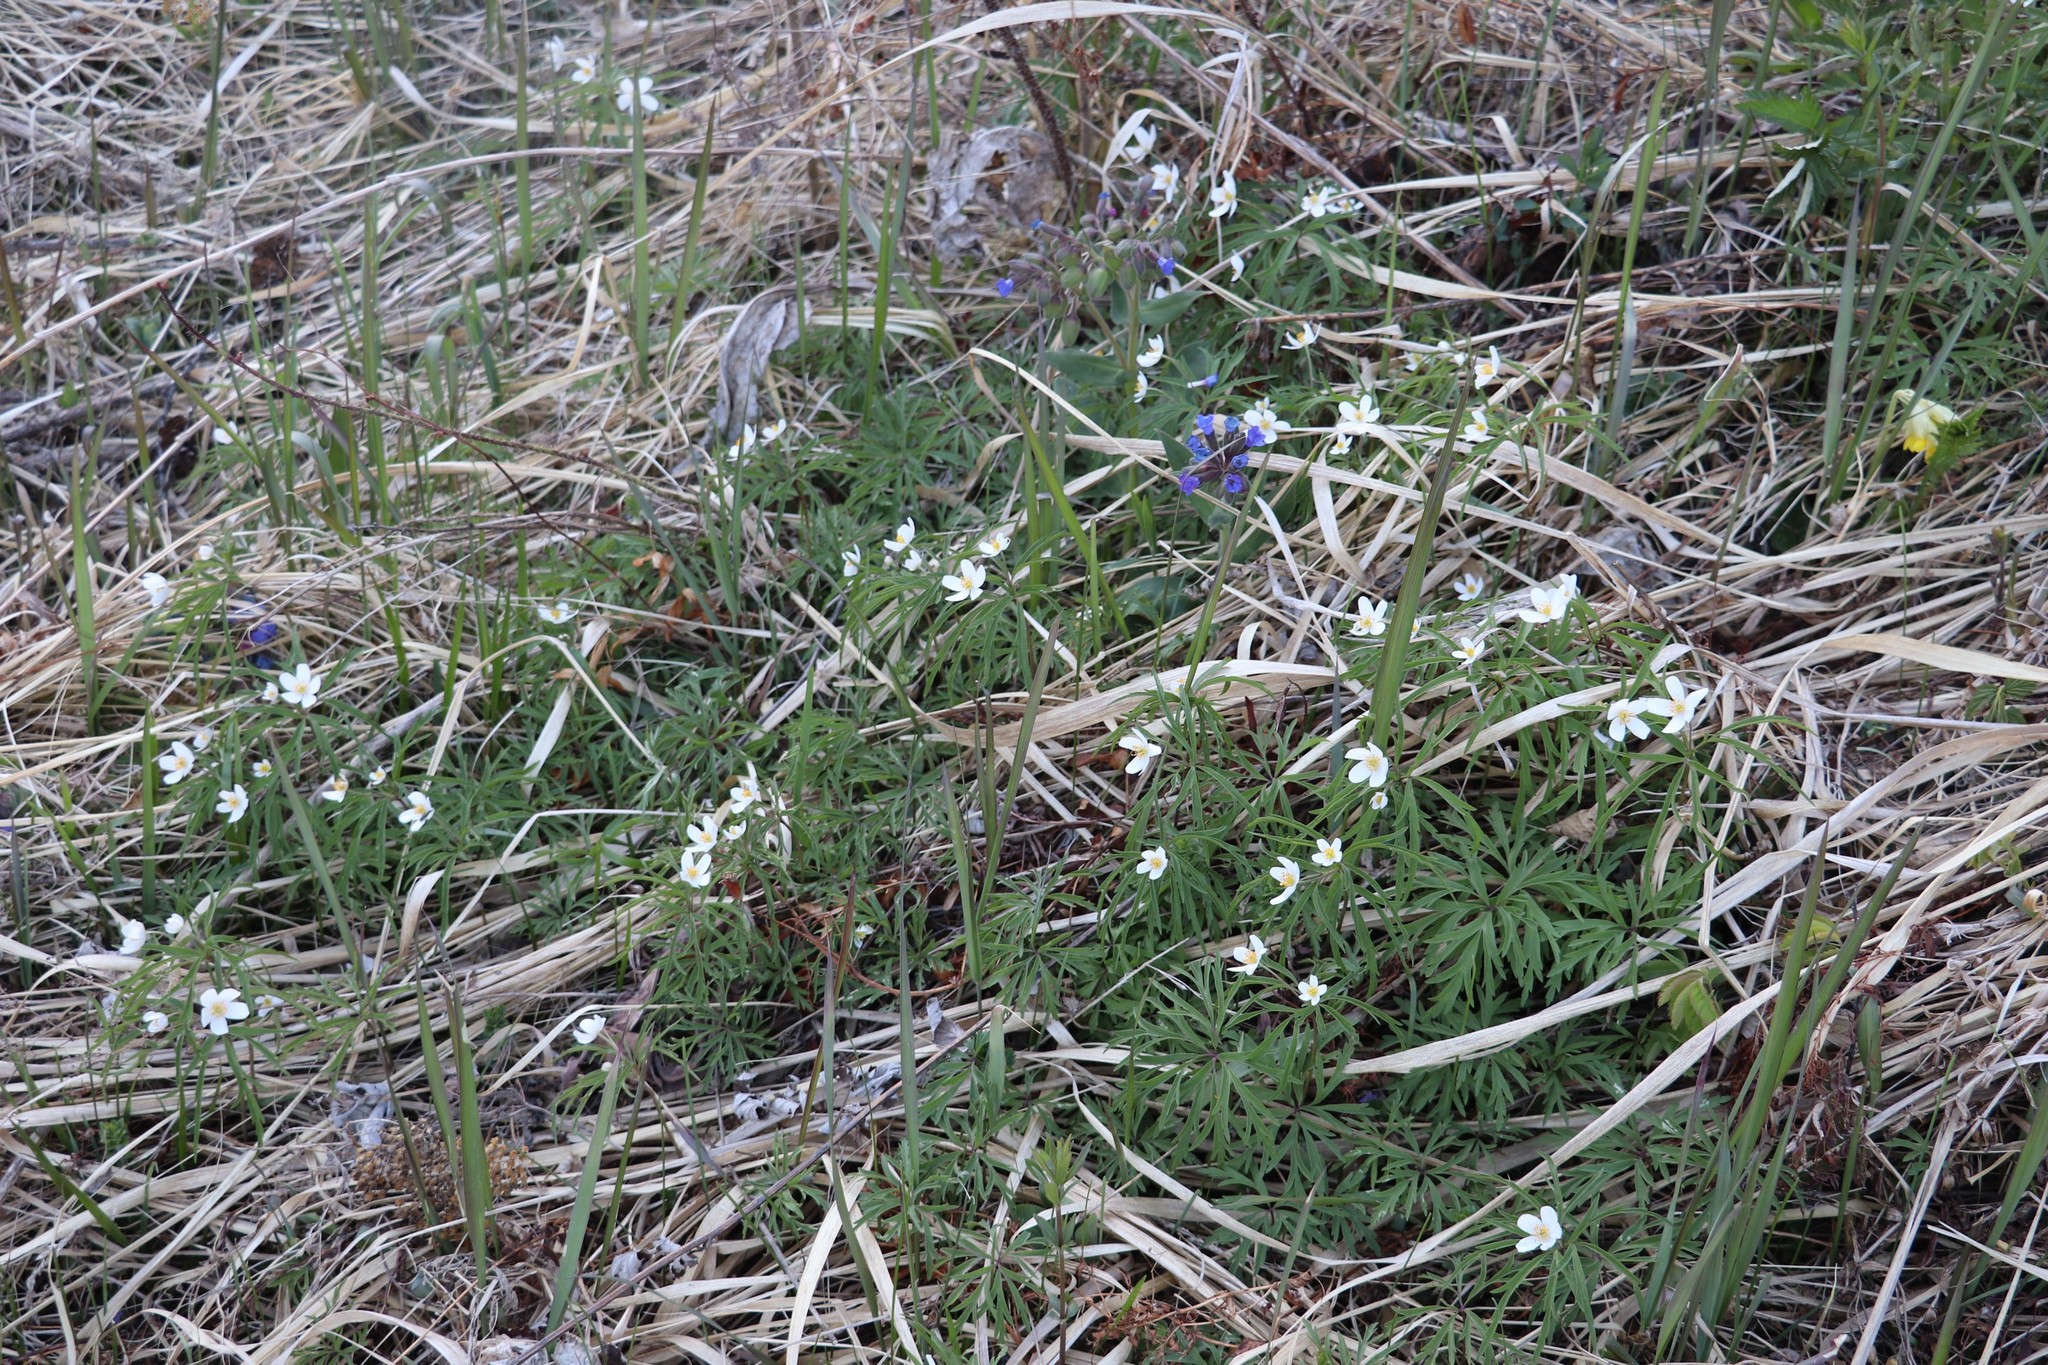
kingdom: Plantae
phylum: Tracheophyta
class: Magnoliopsida
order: Ranunculales
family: Ranunculaceae
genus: Anemone
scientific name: Anemone caerulea
